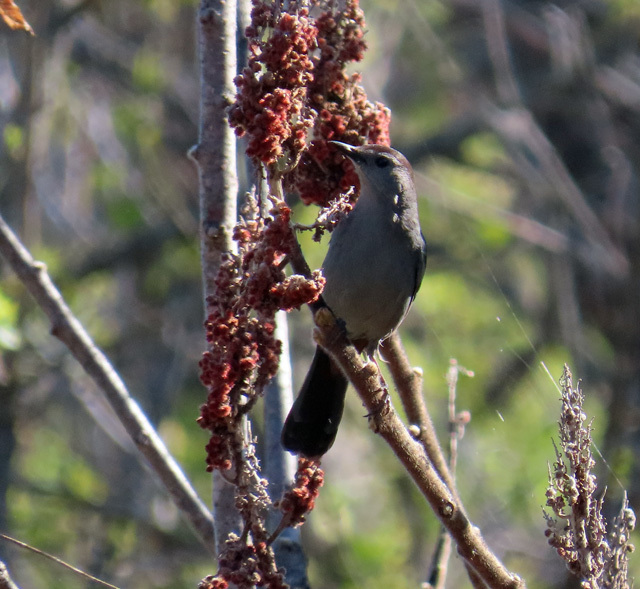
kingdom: Animalia
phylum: Chordata
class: Aves
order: Passeriformes
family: Mimidae
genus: Dumetella
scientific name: Dumetella carolinensis
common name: Gray catbird
